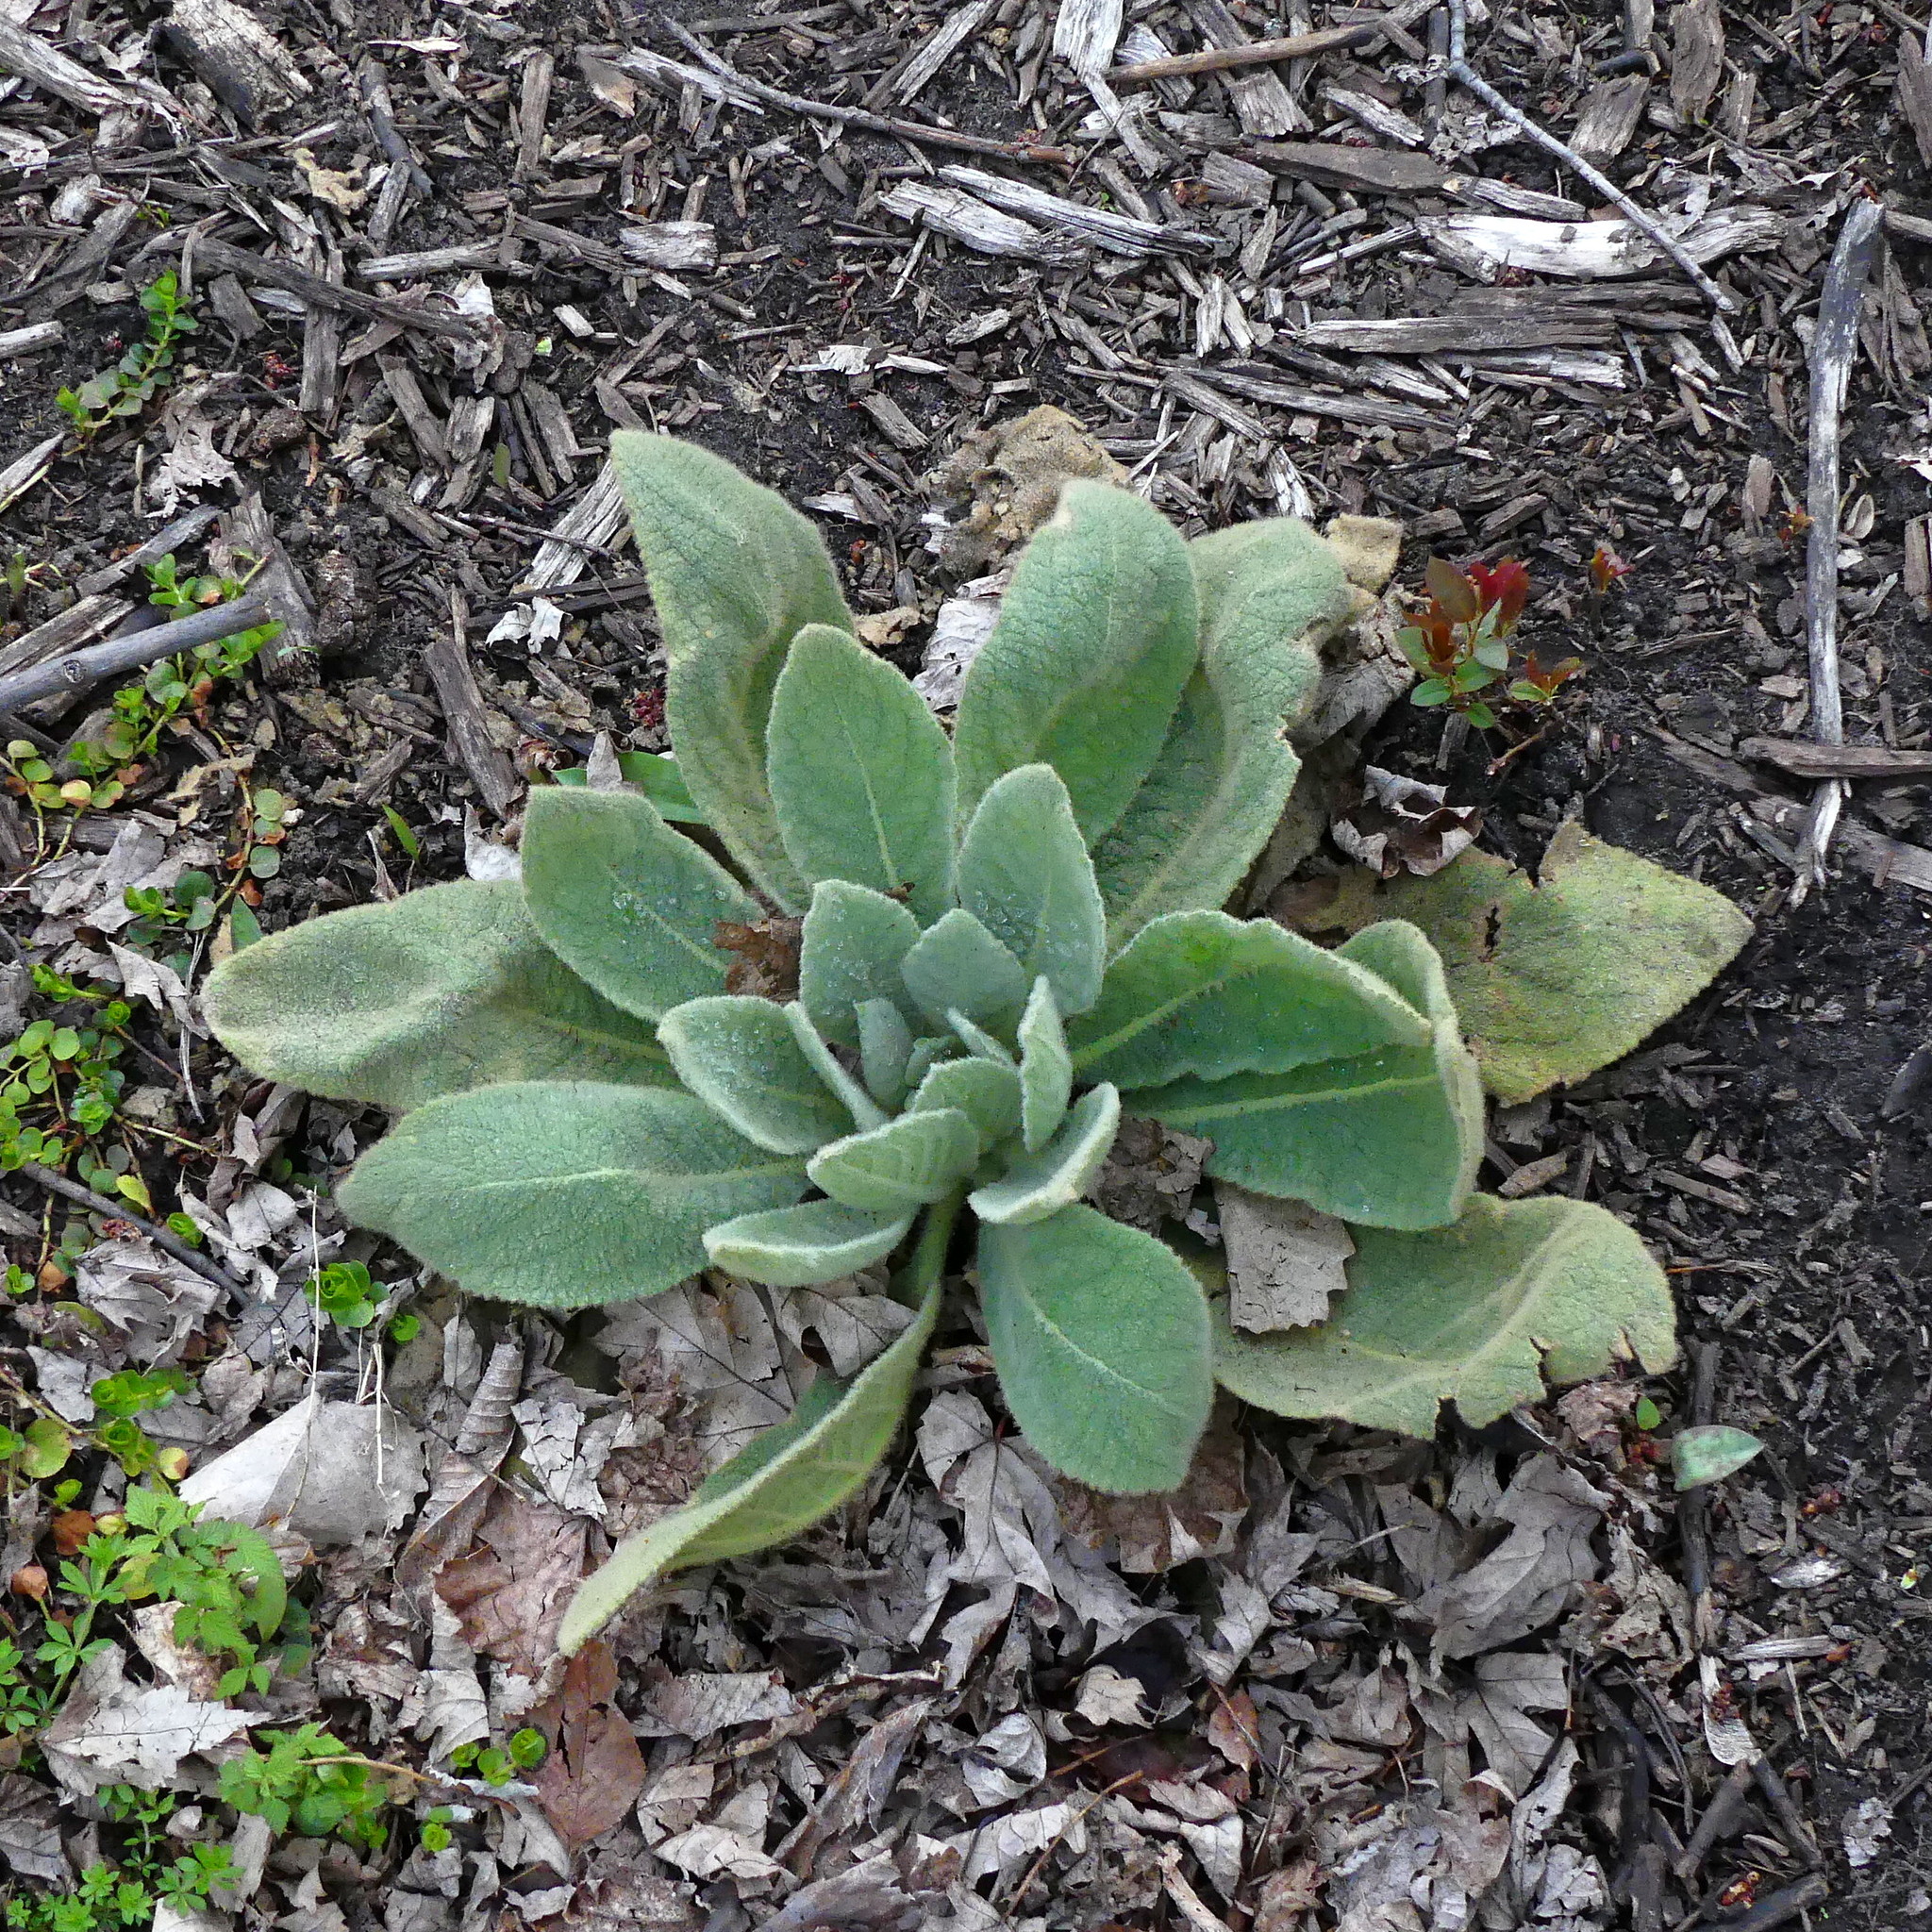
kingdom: Plantae
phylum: Tracheophyta
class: Magnoliopsida
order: Lamiales
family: Scrophulariaceae
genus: Verbascum
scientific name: Verbascum thapsus
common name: Common mullein
